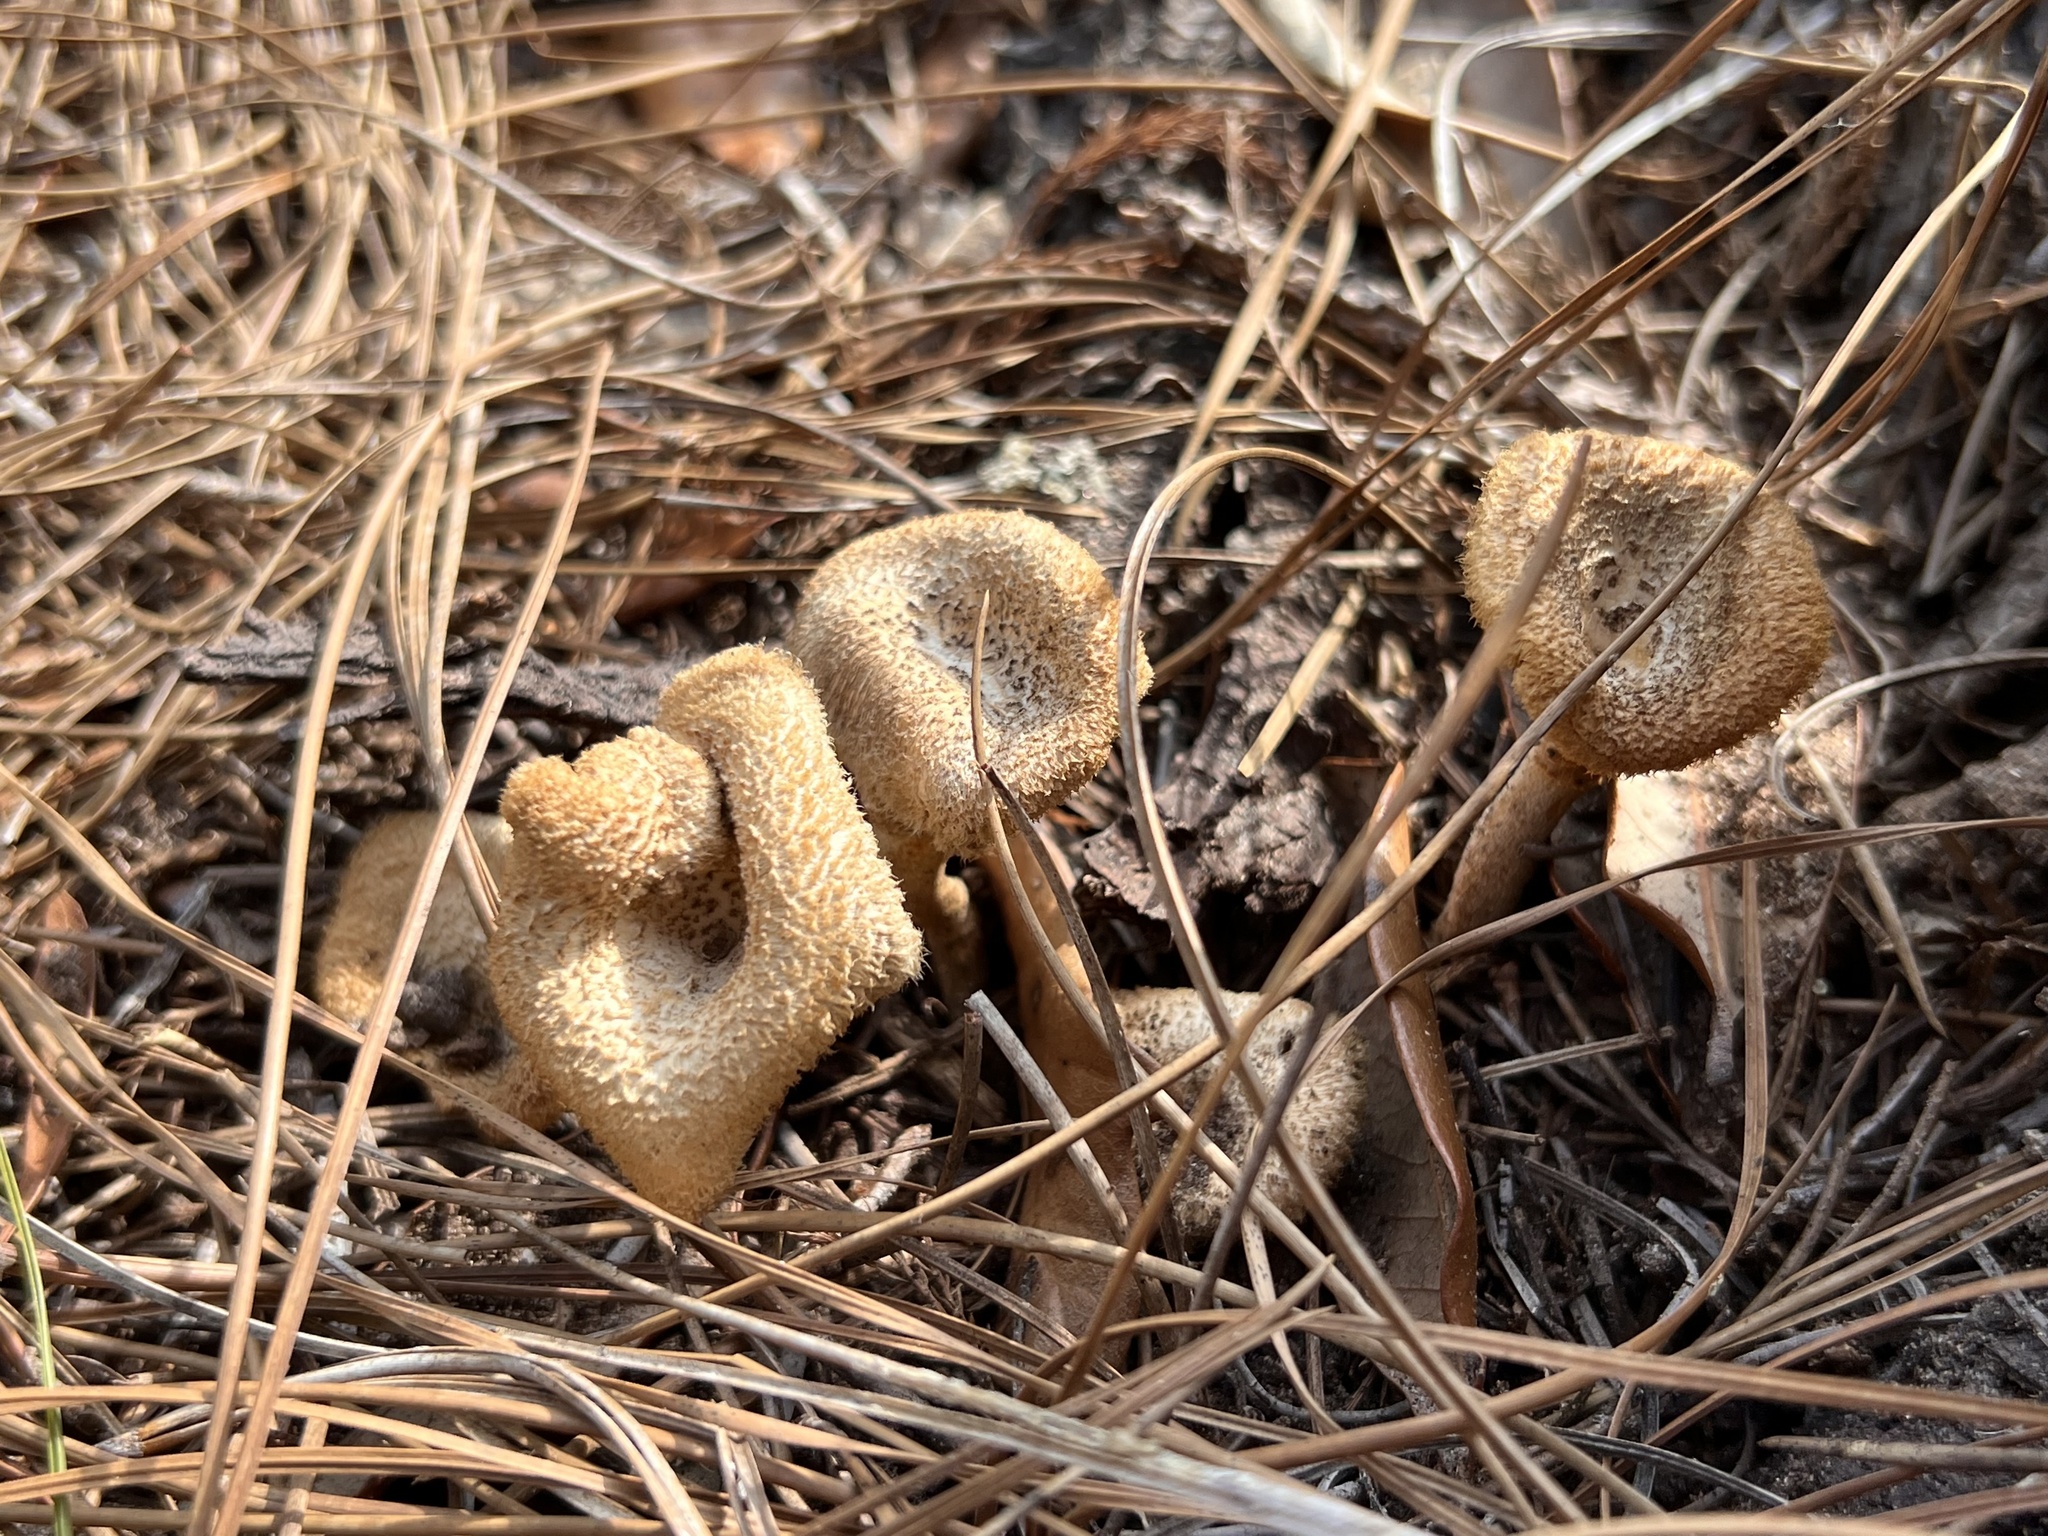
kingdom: Fungi
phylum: Basidiomycota
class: Agaricomycetes
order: Polyporales
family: Polyporaceae
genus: Lentinus
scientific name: Lentinus crinitus
